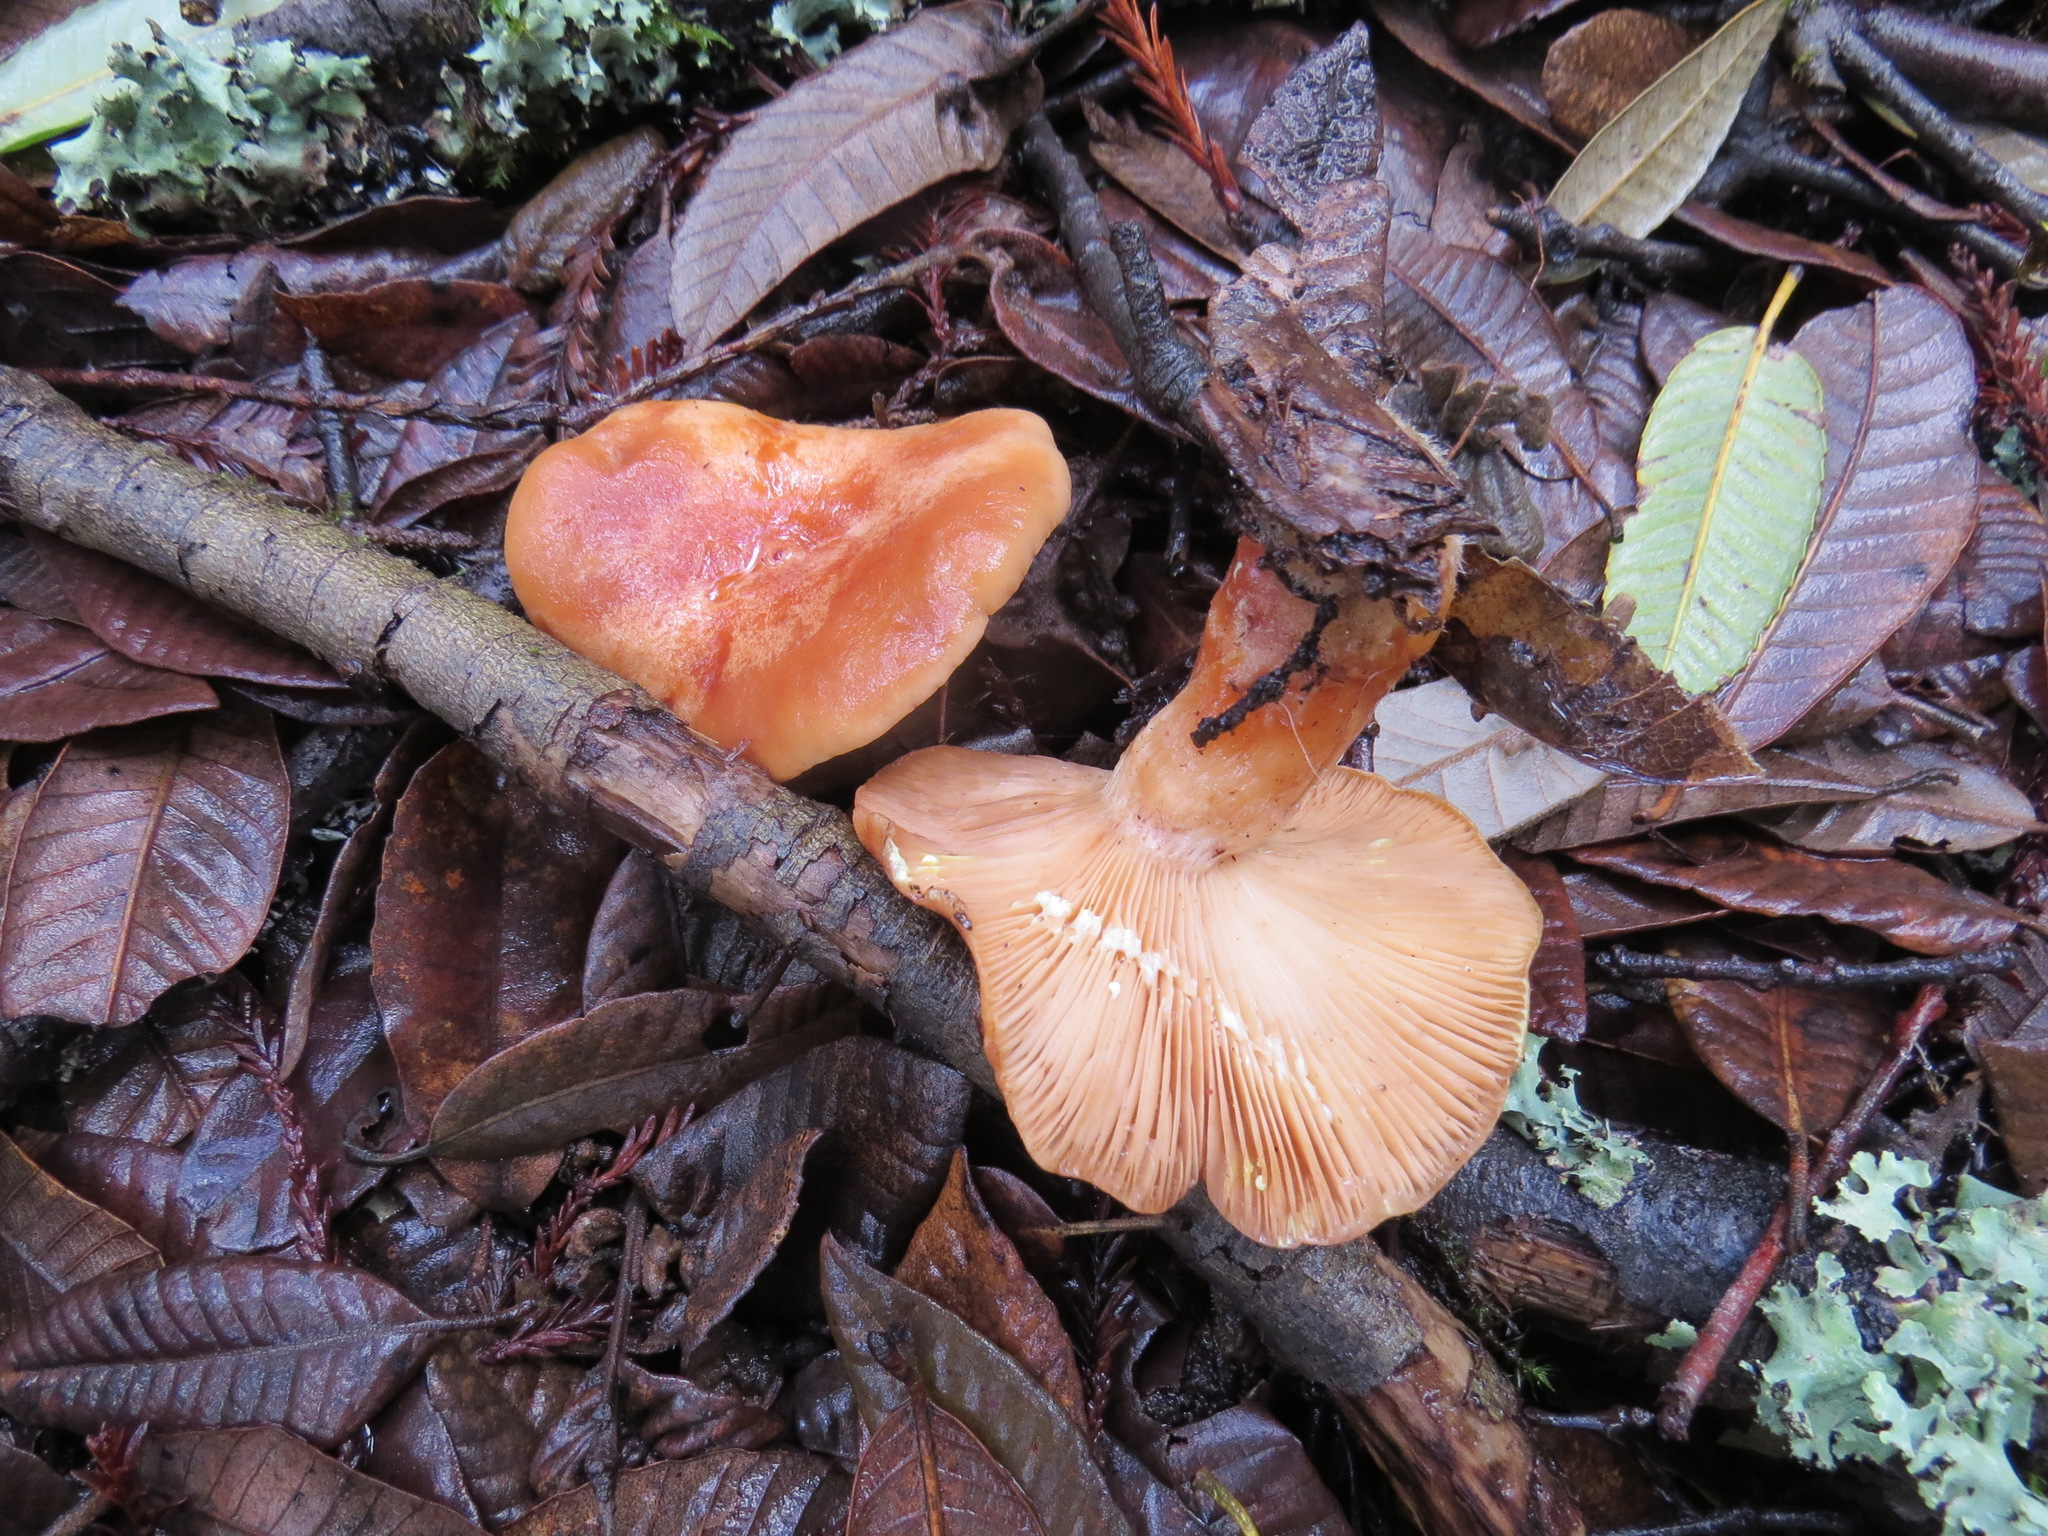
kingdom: Fungi
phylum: Basidiomycota
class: Agaricomycetes
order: Russulales
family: Russulaceae
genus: Lactarius
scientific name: Lactarius xanthogalactus
